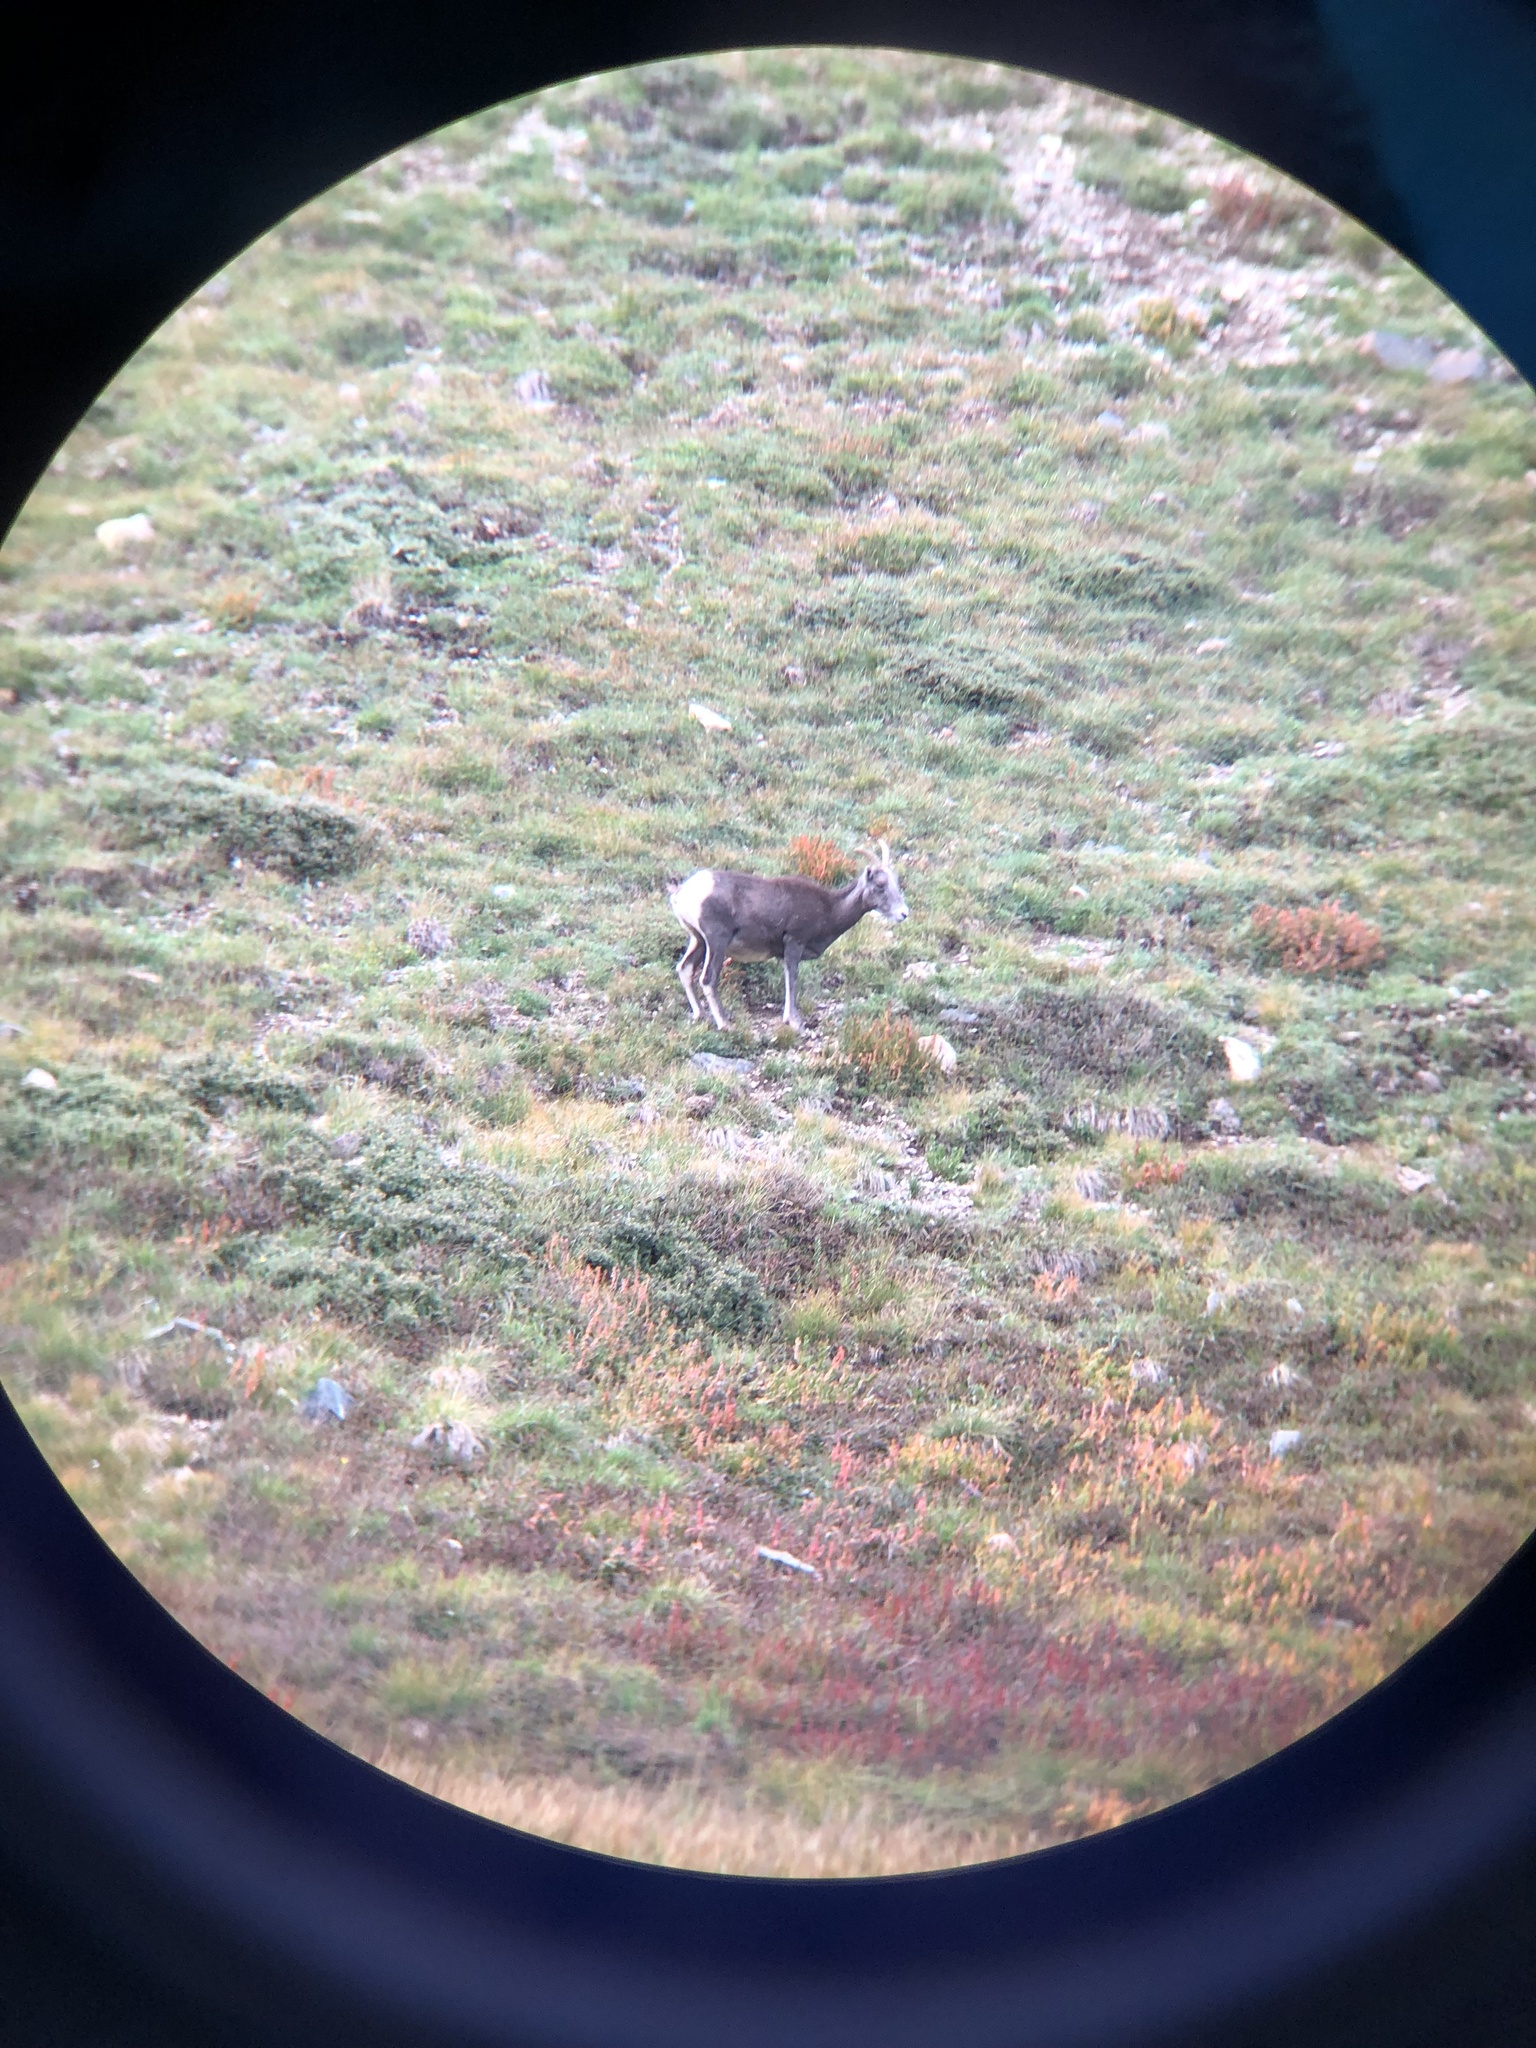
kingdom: Animalia
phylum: Chordata
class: Mammalia
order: Artiodactyla
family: Bovidae
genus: Ovis
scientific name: Ovis canadensis
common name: Bighorn sheep
